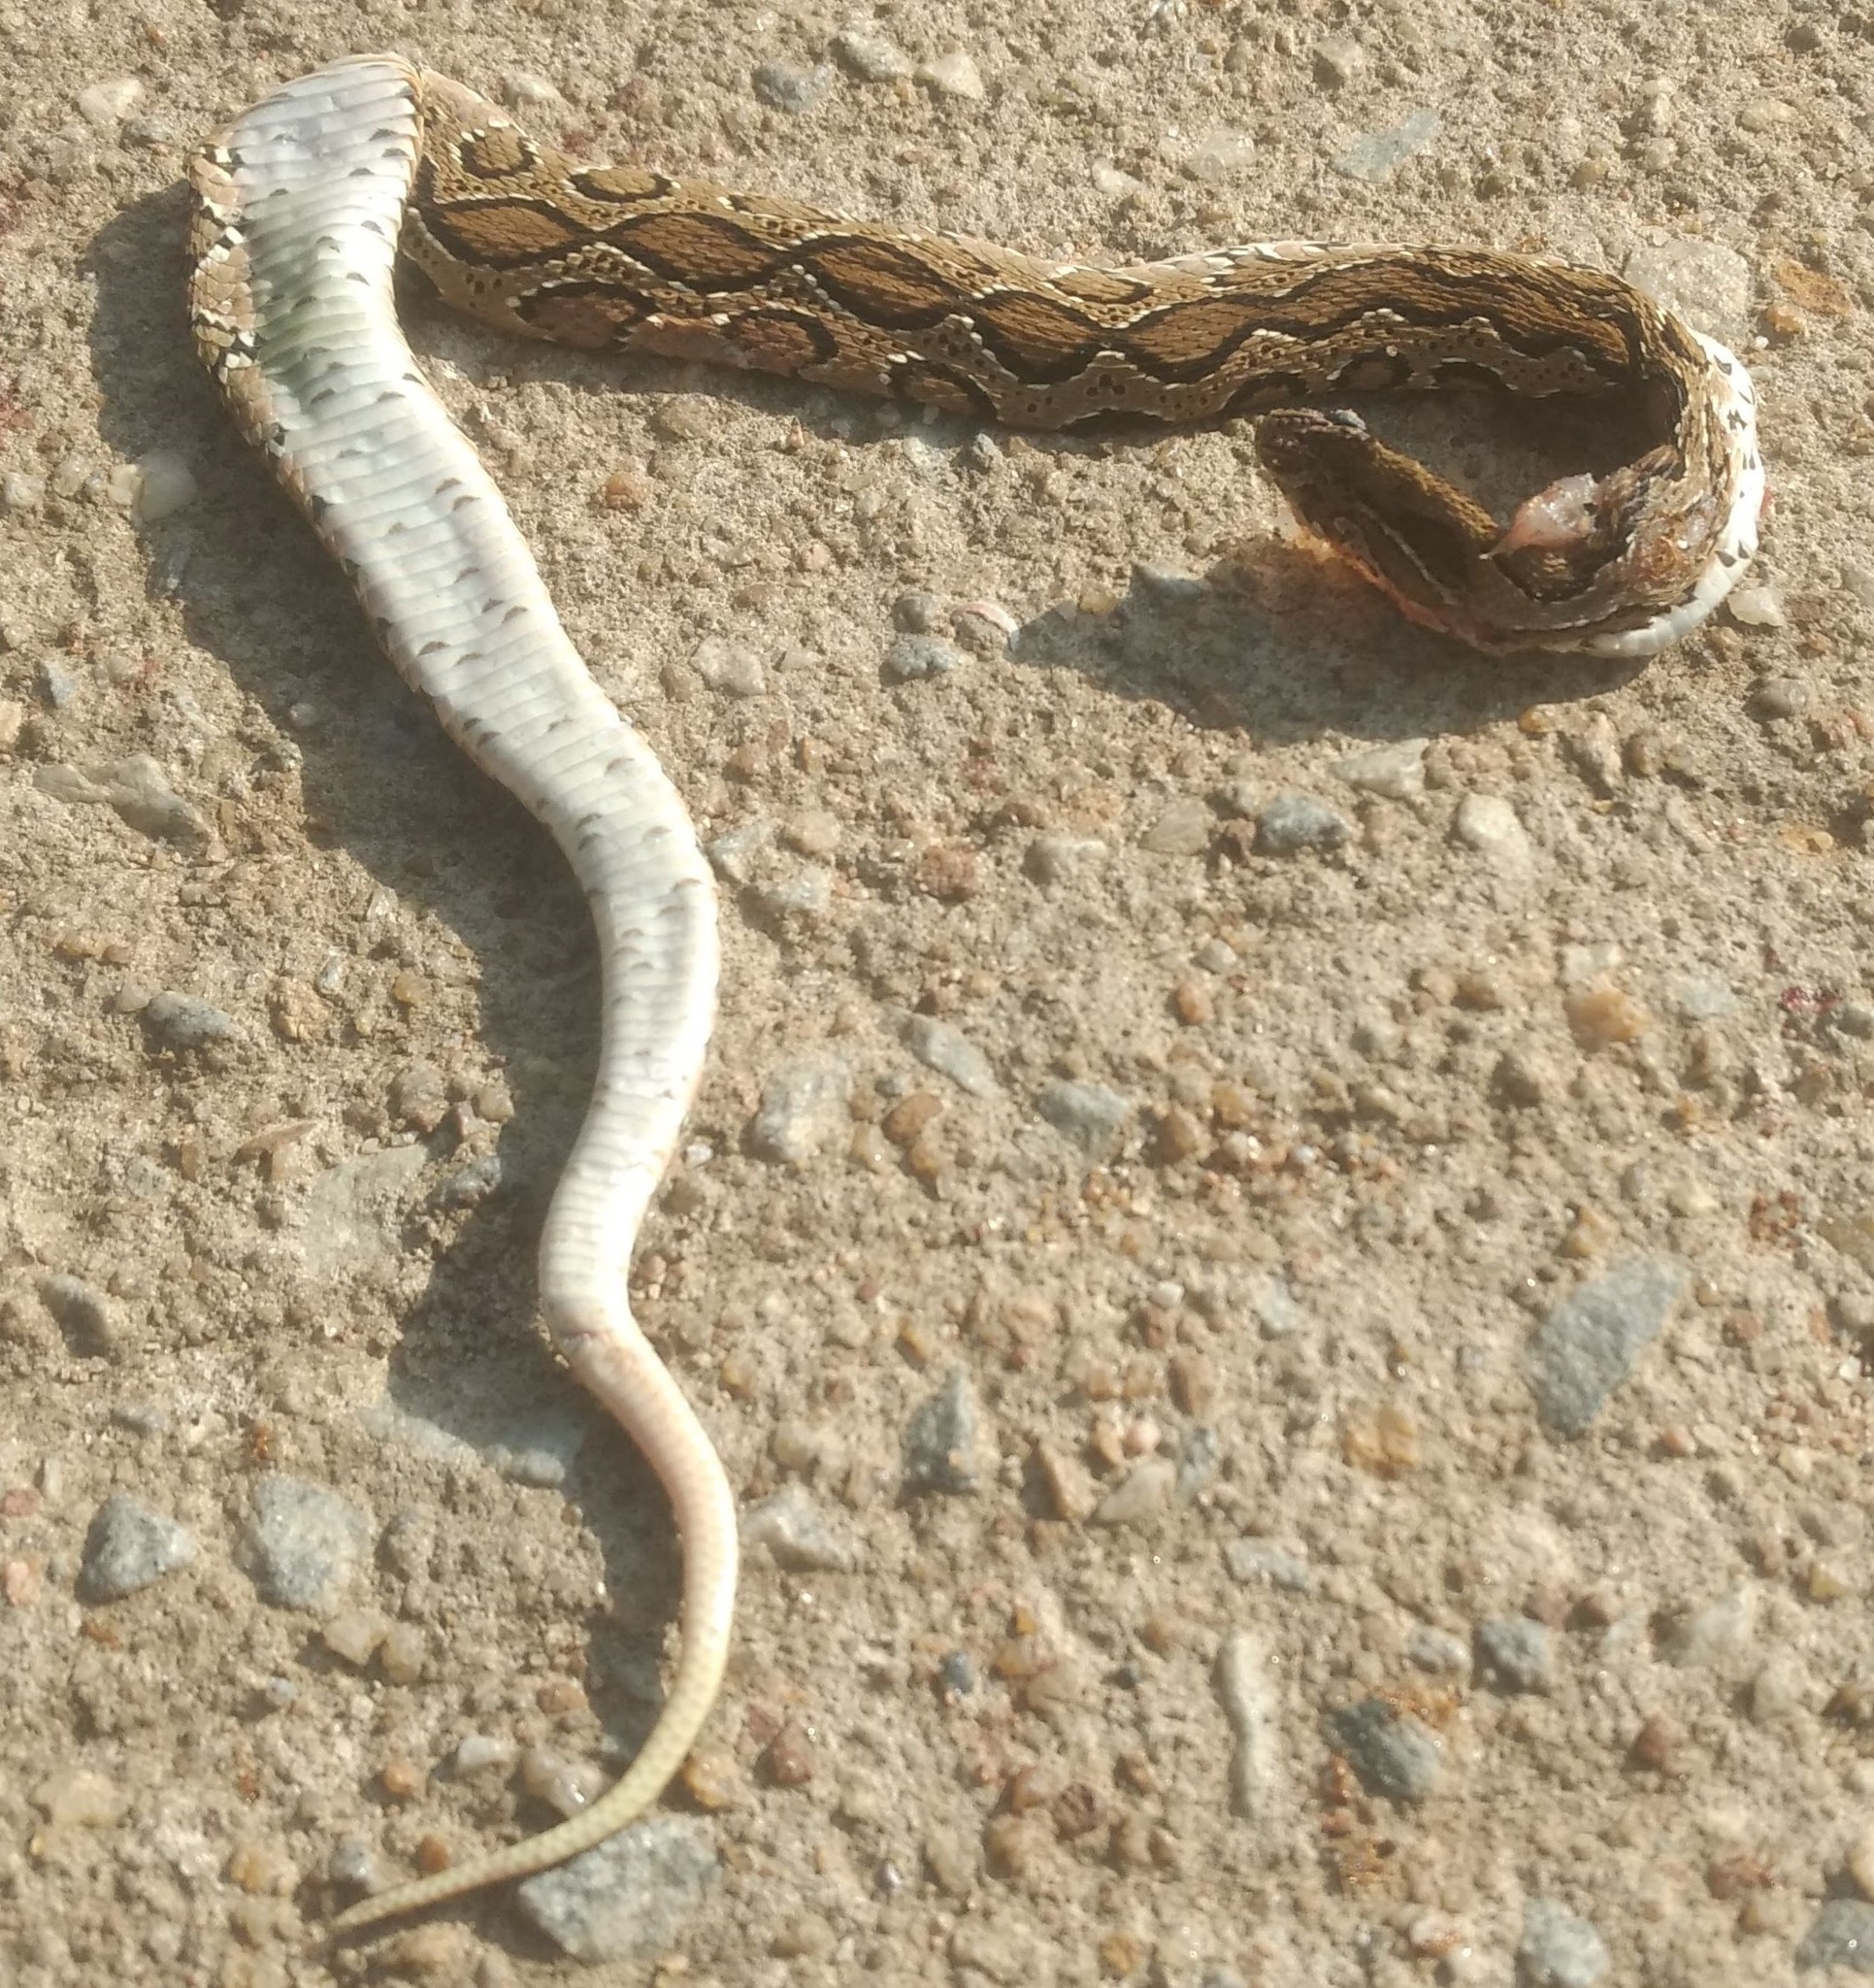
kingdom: Animalia
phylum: Chordata
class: Squamata
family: Viperidae
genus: Daboia
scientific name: Daboia russelii
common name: Western russel’s viper
